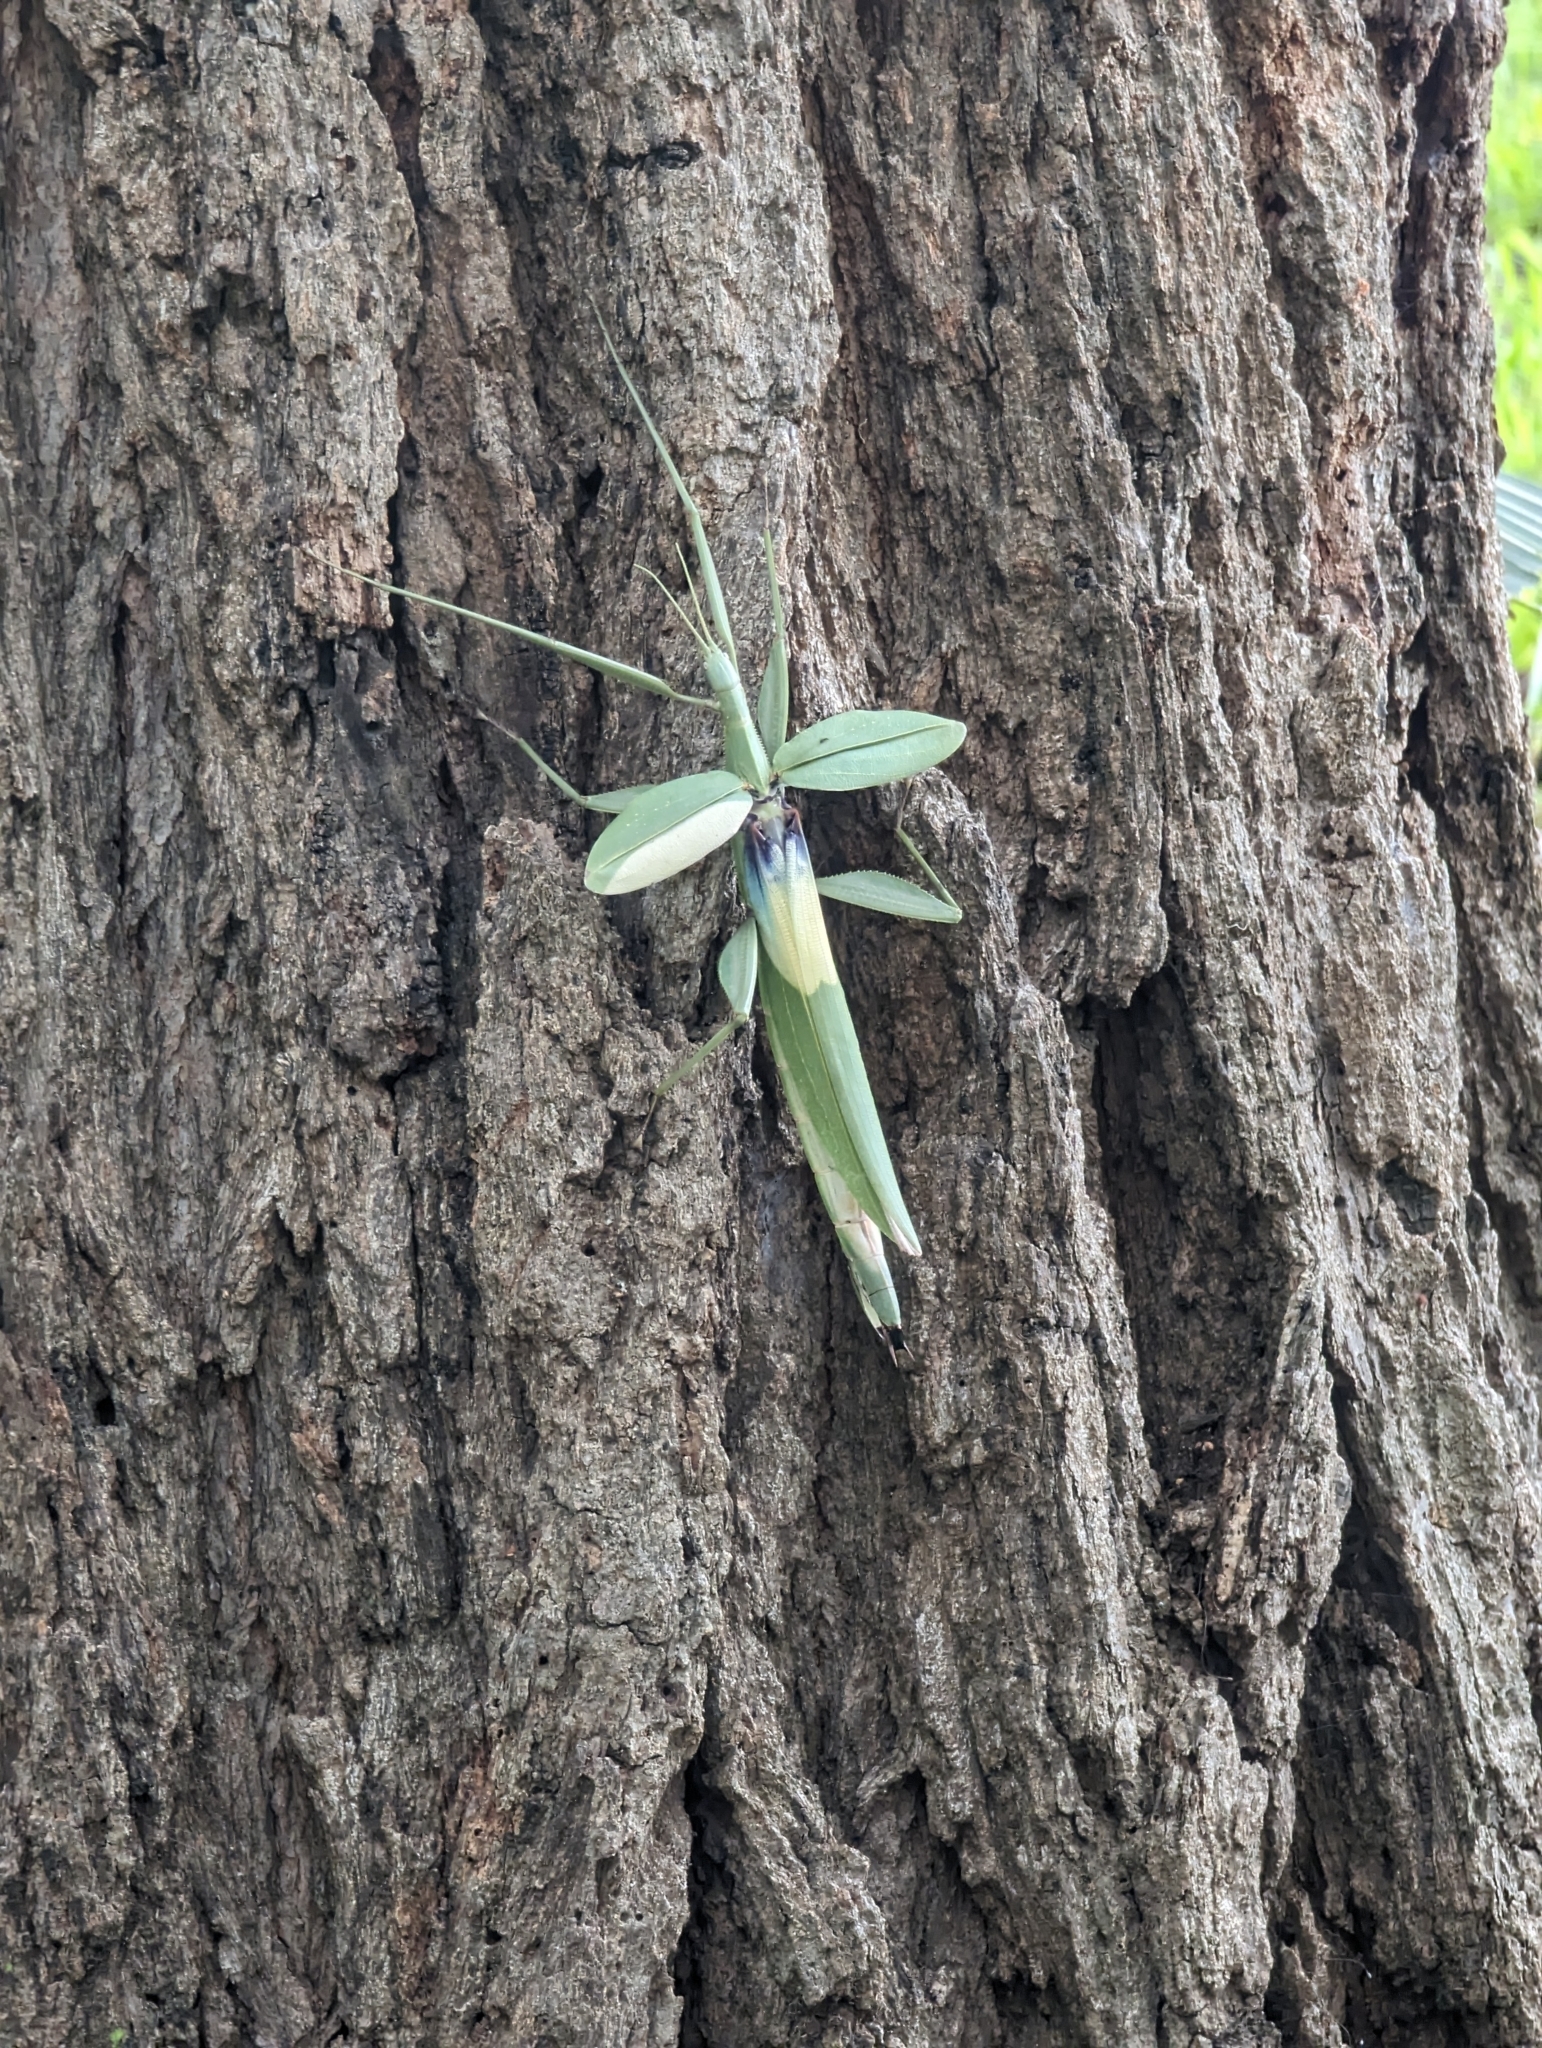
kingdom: Animalia
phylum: Arthropoda
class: Insecta
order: Phasmida
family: Phasmatidae
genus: Tropidoderus
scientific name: Tropidoderus childrenii
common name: Children's stick insect
